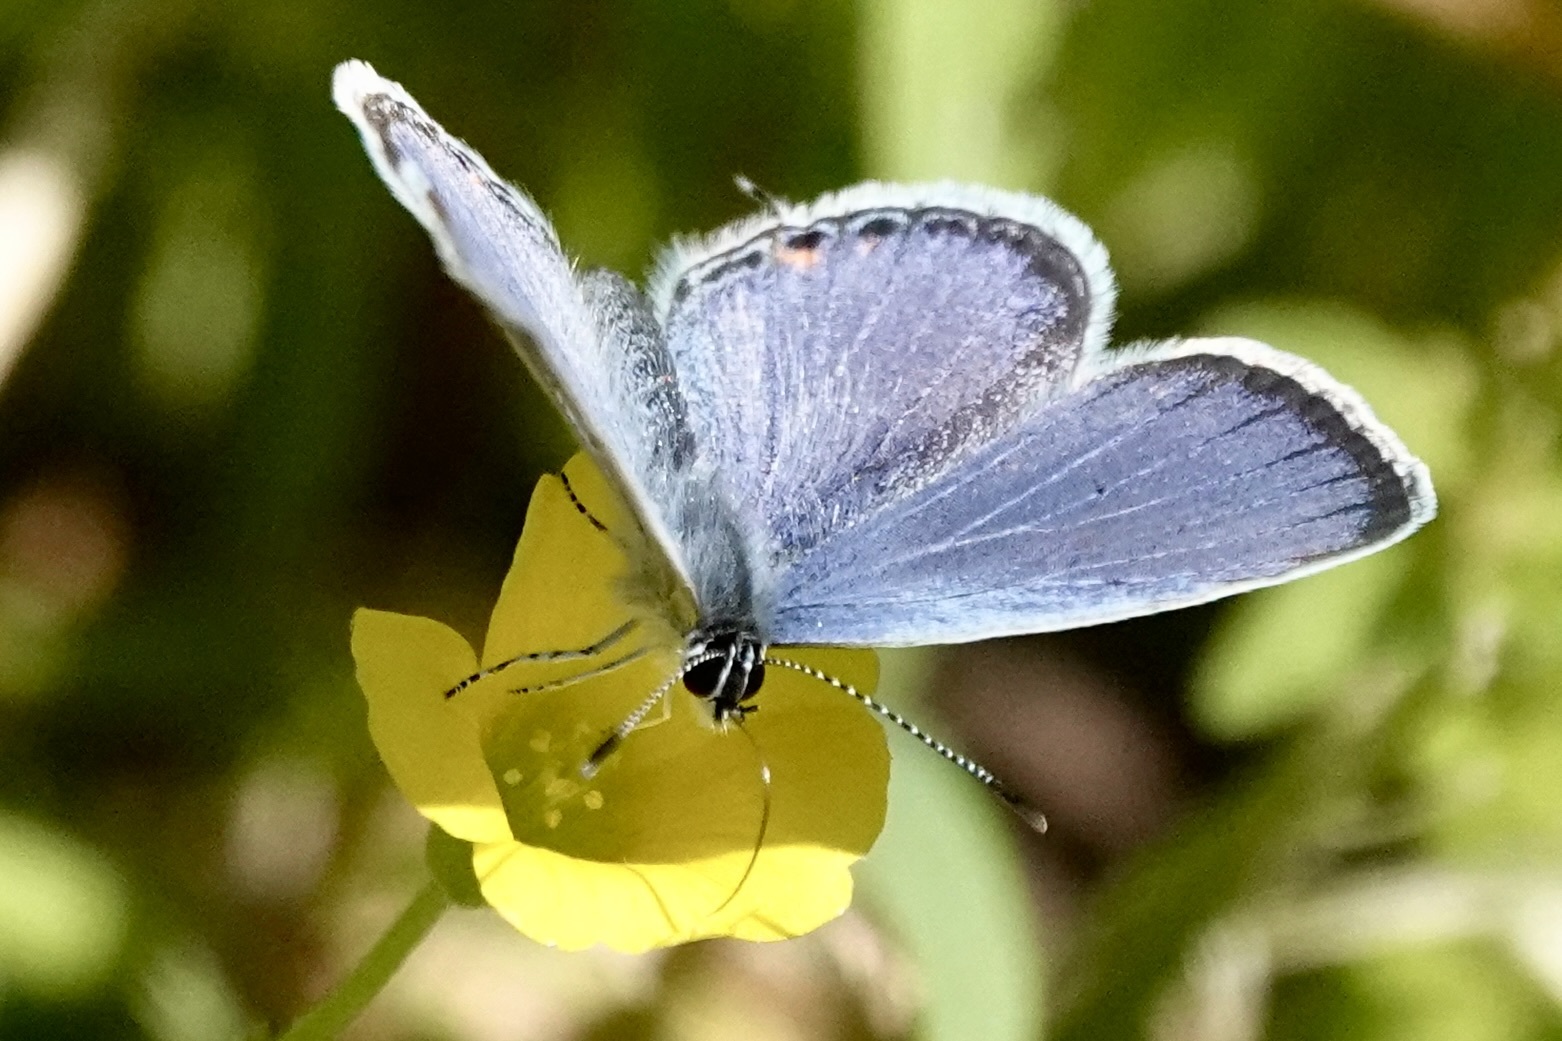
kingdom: Animalia
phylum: Arthropoda
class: Insecta
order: Lepidoptera
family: Lycaenidae
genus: Elkalyce
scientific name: Elkalyce comyntas
